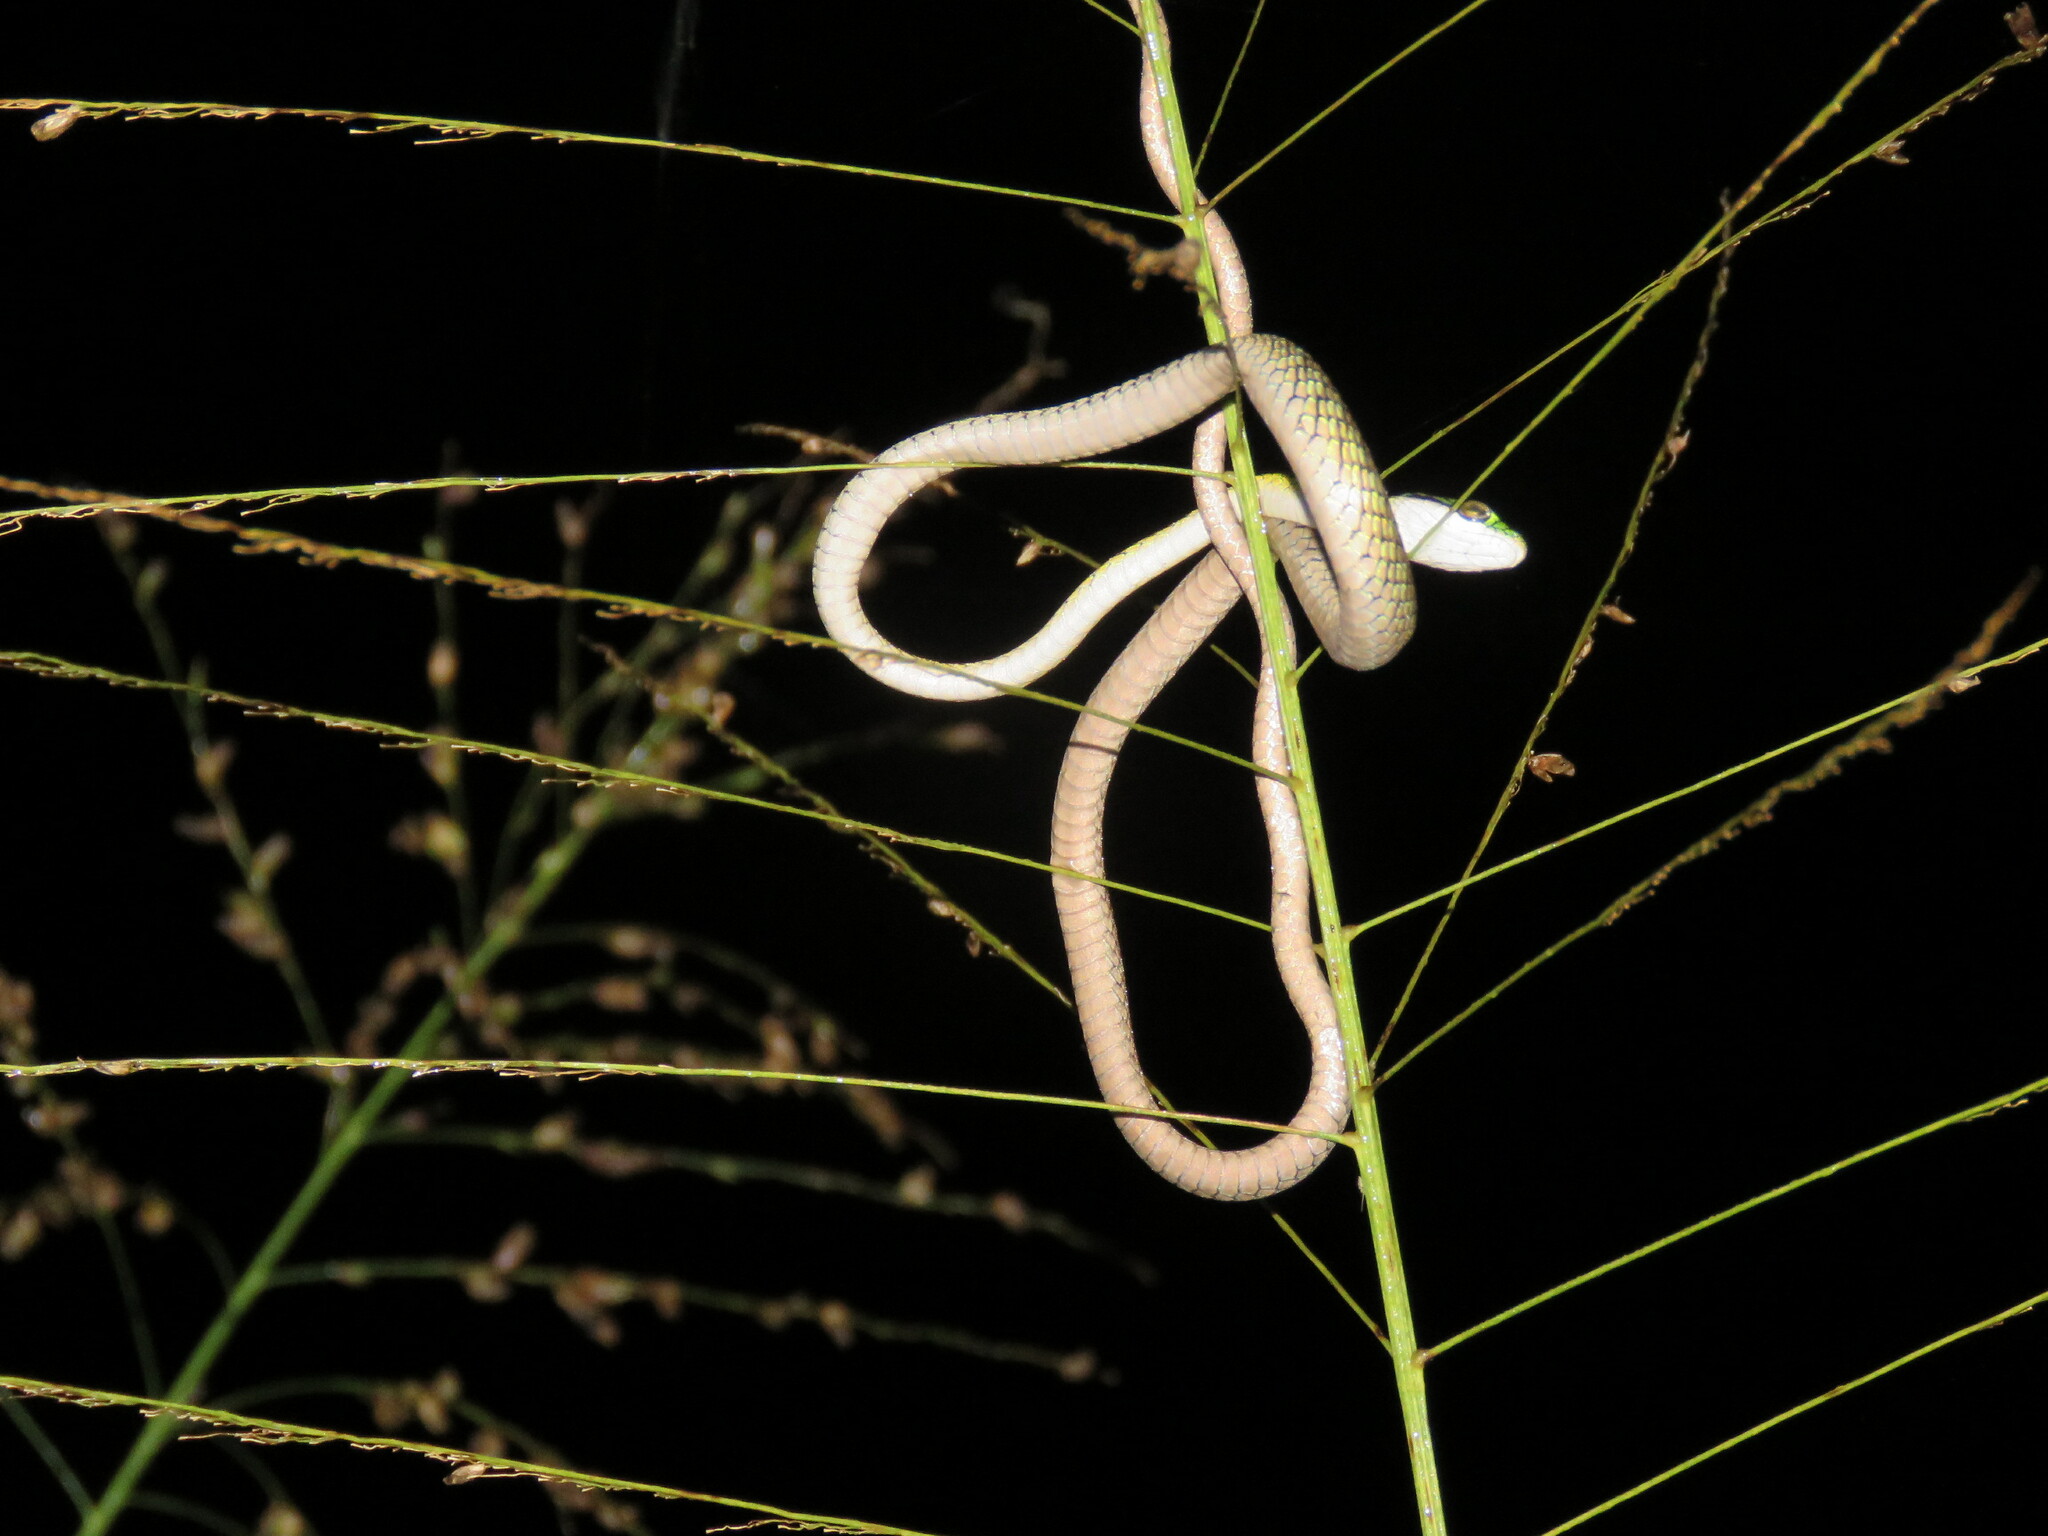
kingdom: Animalia
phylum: Chordata
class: Squamata
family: Colubridae
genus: Leptophis
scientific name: Leptophis ahaetulla
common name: Parrot snake
